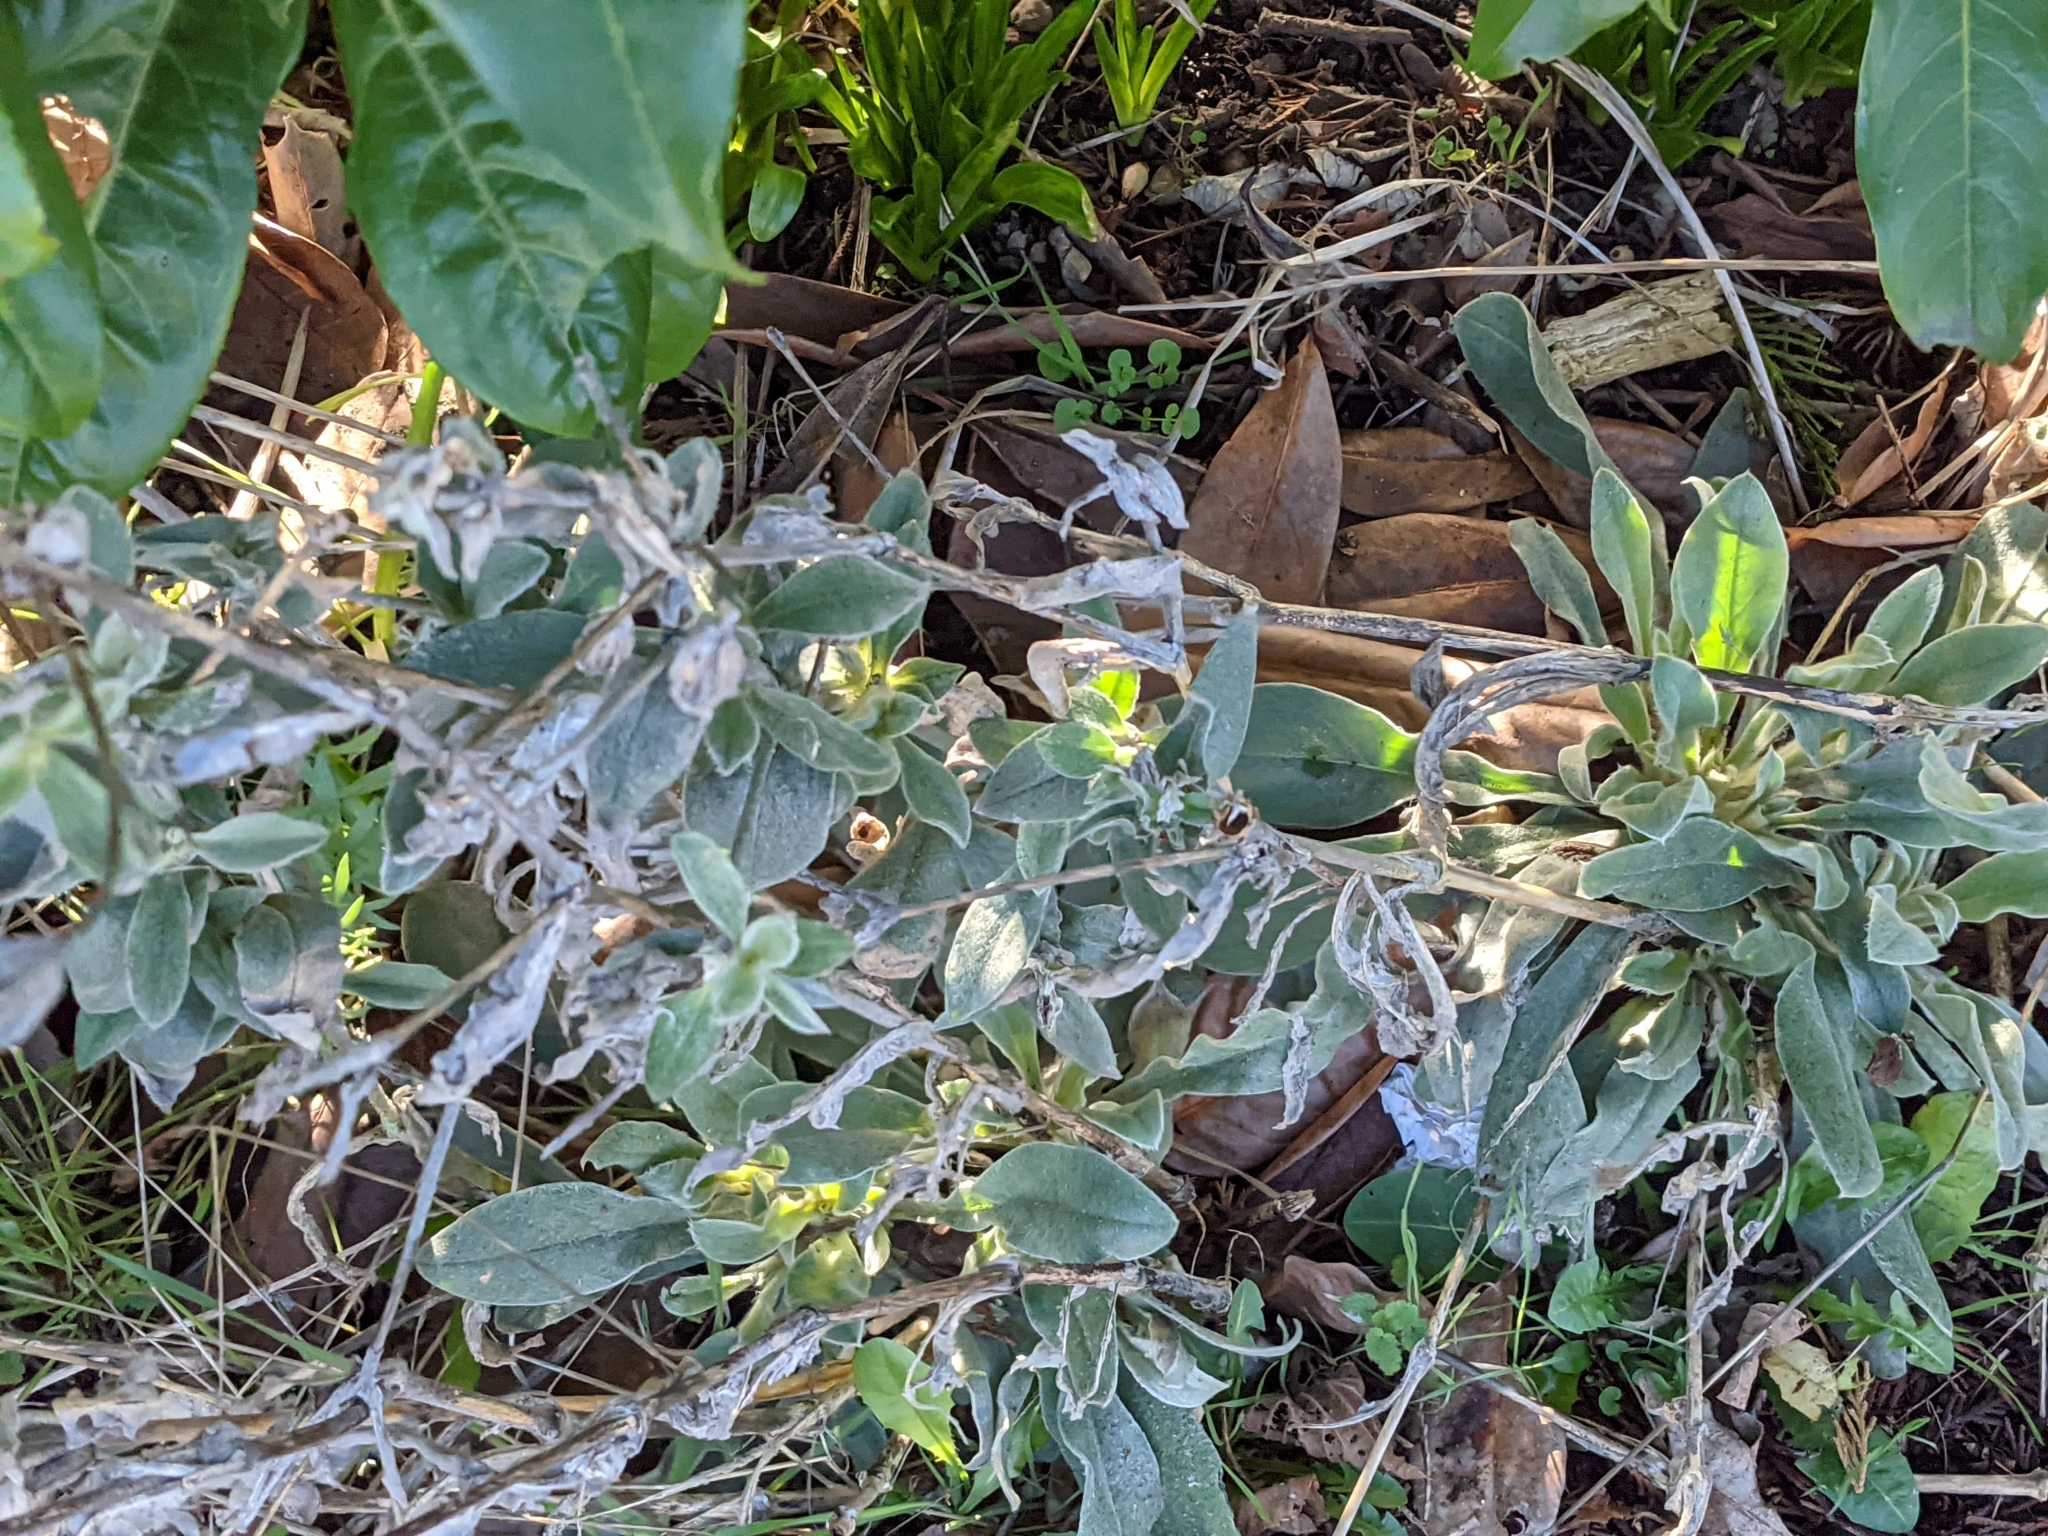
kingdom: Plantae
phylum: Tracheophyta
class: Magnoliopsida
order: Caryophyllales
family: Caryophyllaceae
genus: Silene
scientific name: Silene coronaria
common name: Rose campion
